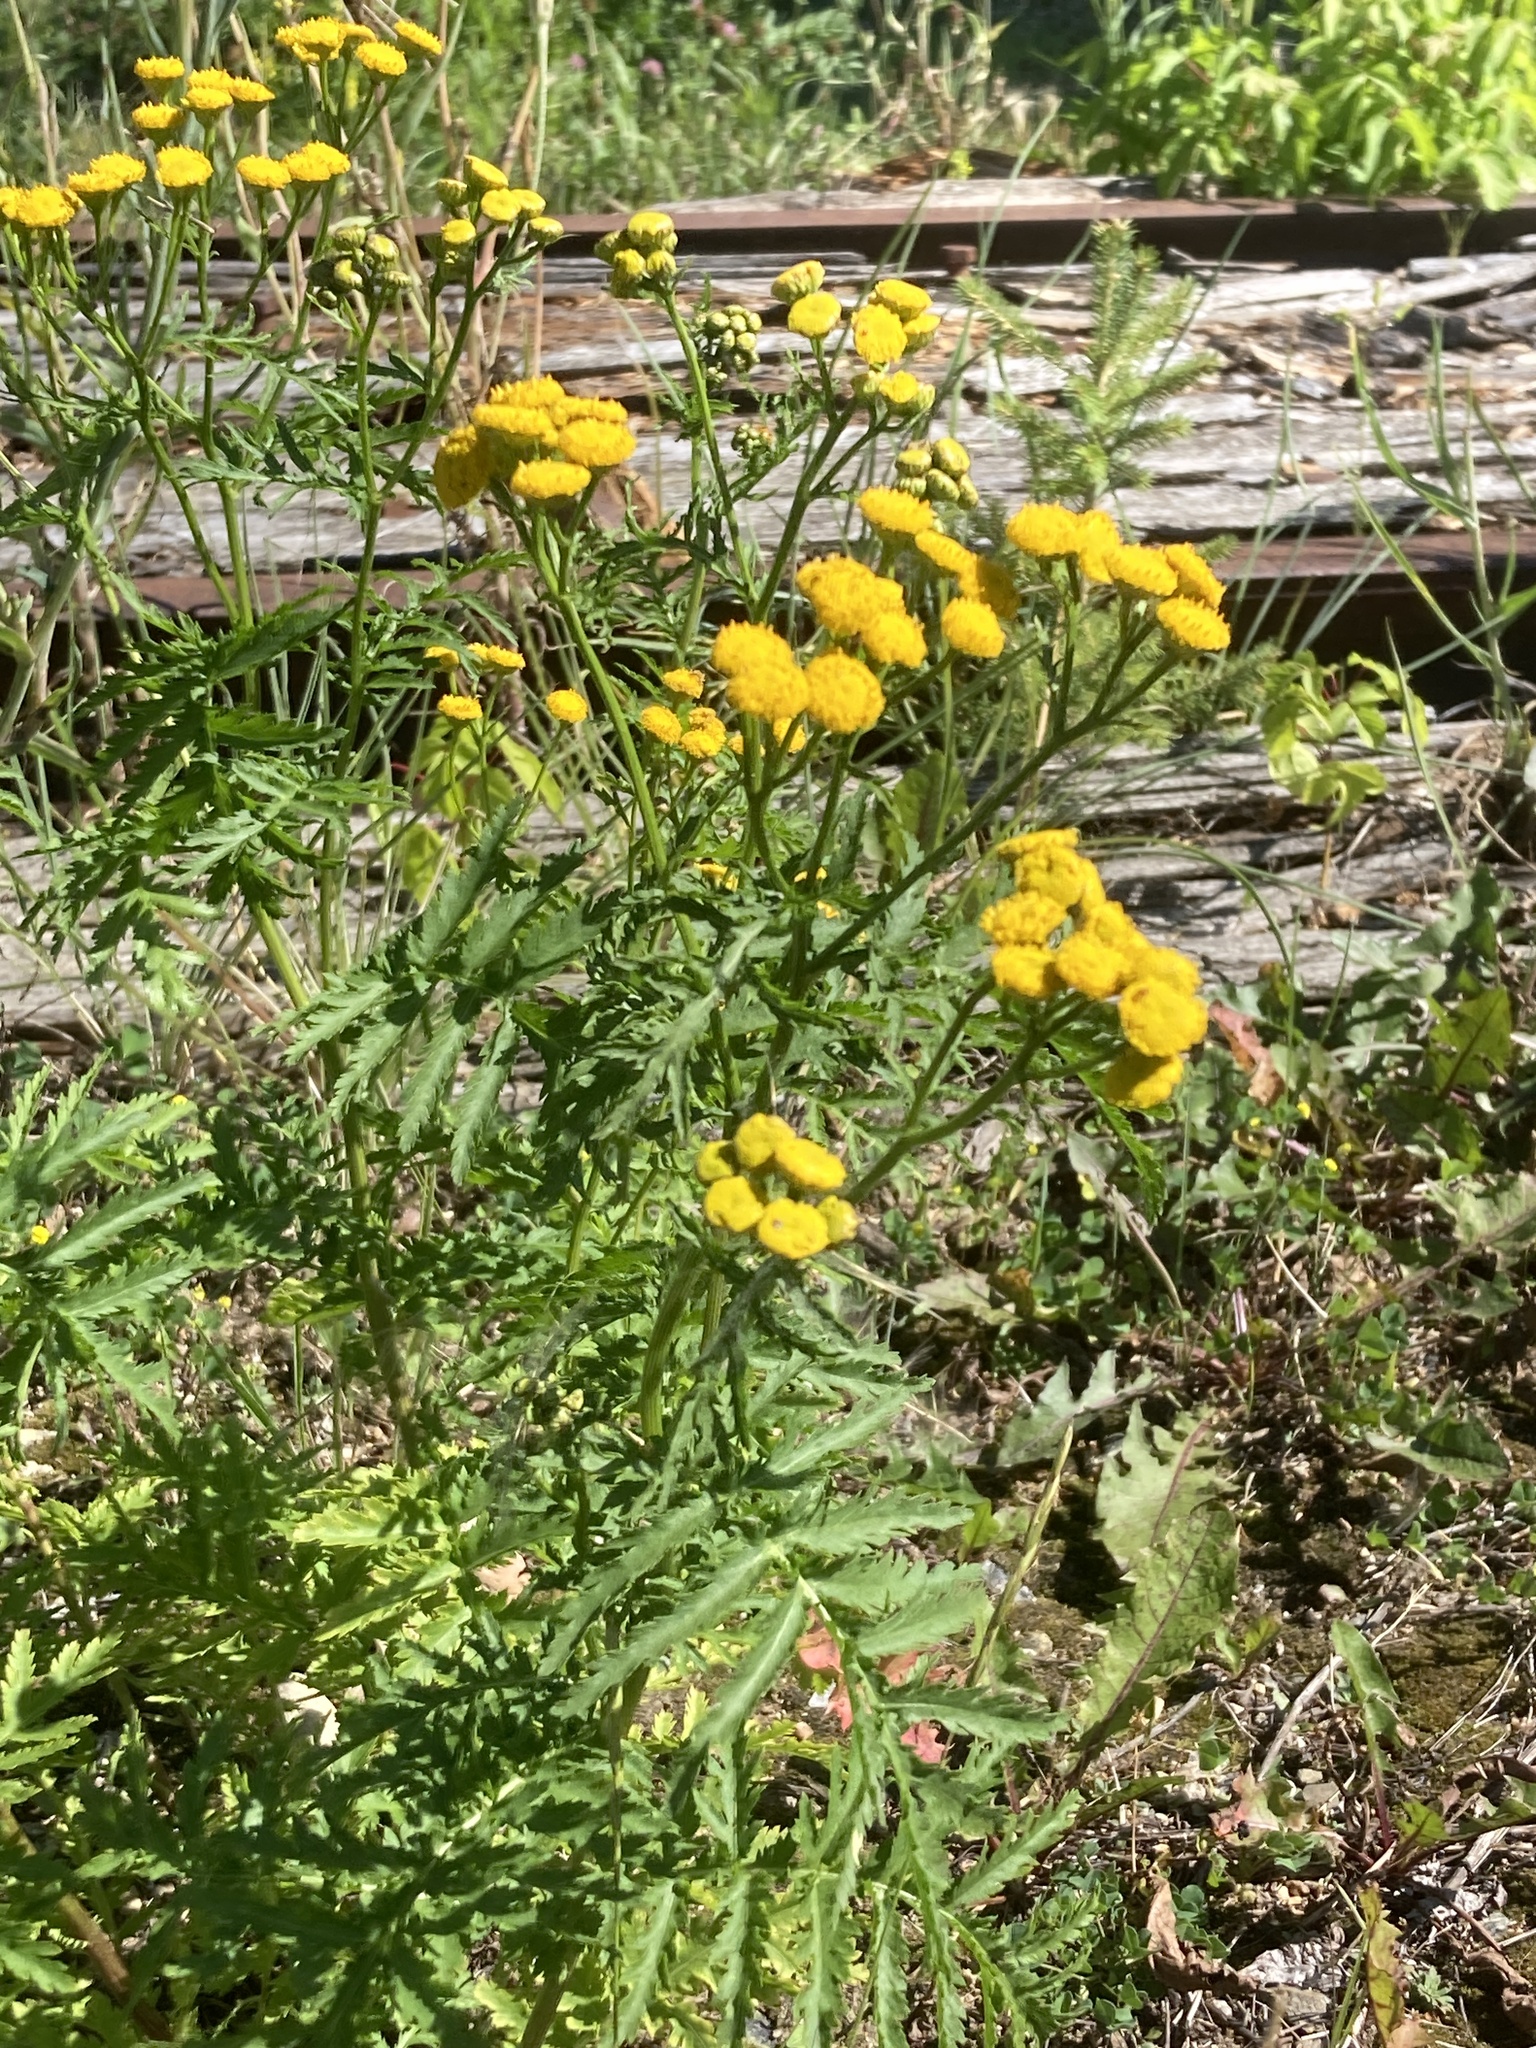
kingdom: Plantae
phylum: Tracheophyta
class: Magnoliopsida
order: Asterales
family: Asteraceae
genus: Tanacetum
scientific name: Tanacetum vulgare
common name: Common tansy
